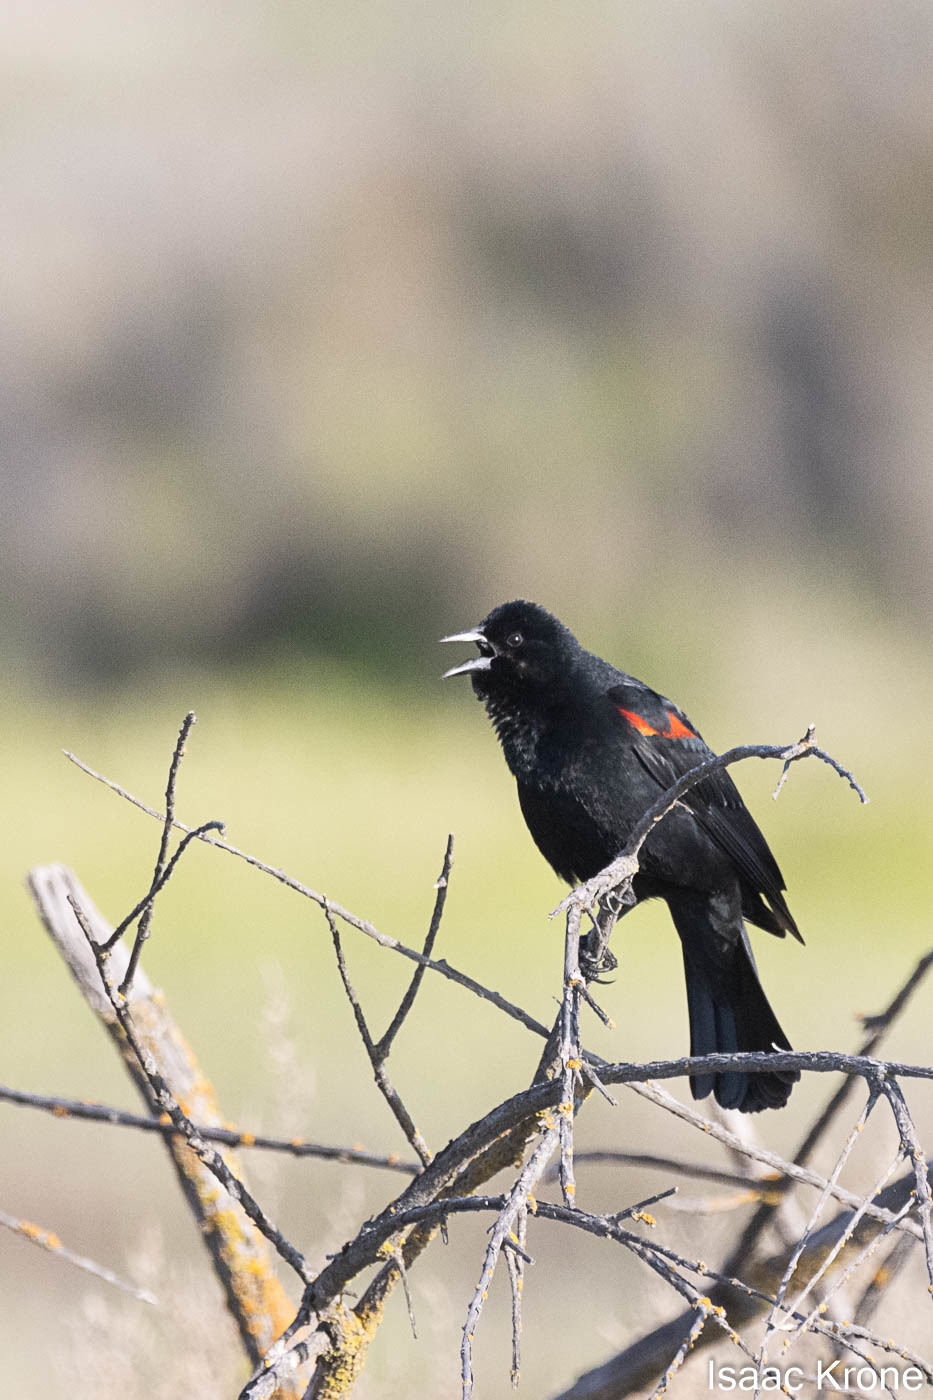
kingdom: Animalia
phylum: Chordata
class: Aves
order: Passeriformes
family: Icteridae
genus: Agelaius
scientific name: Agelaius phoeniceus
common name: Red-winged blackbird
